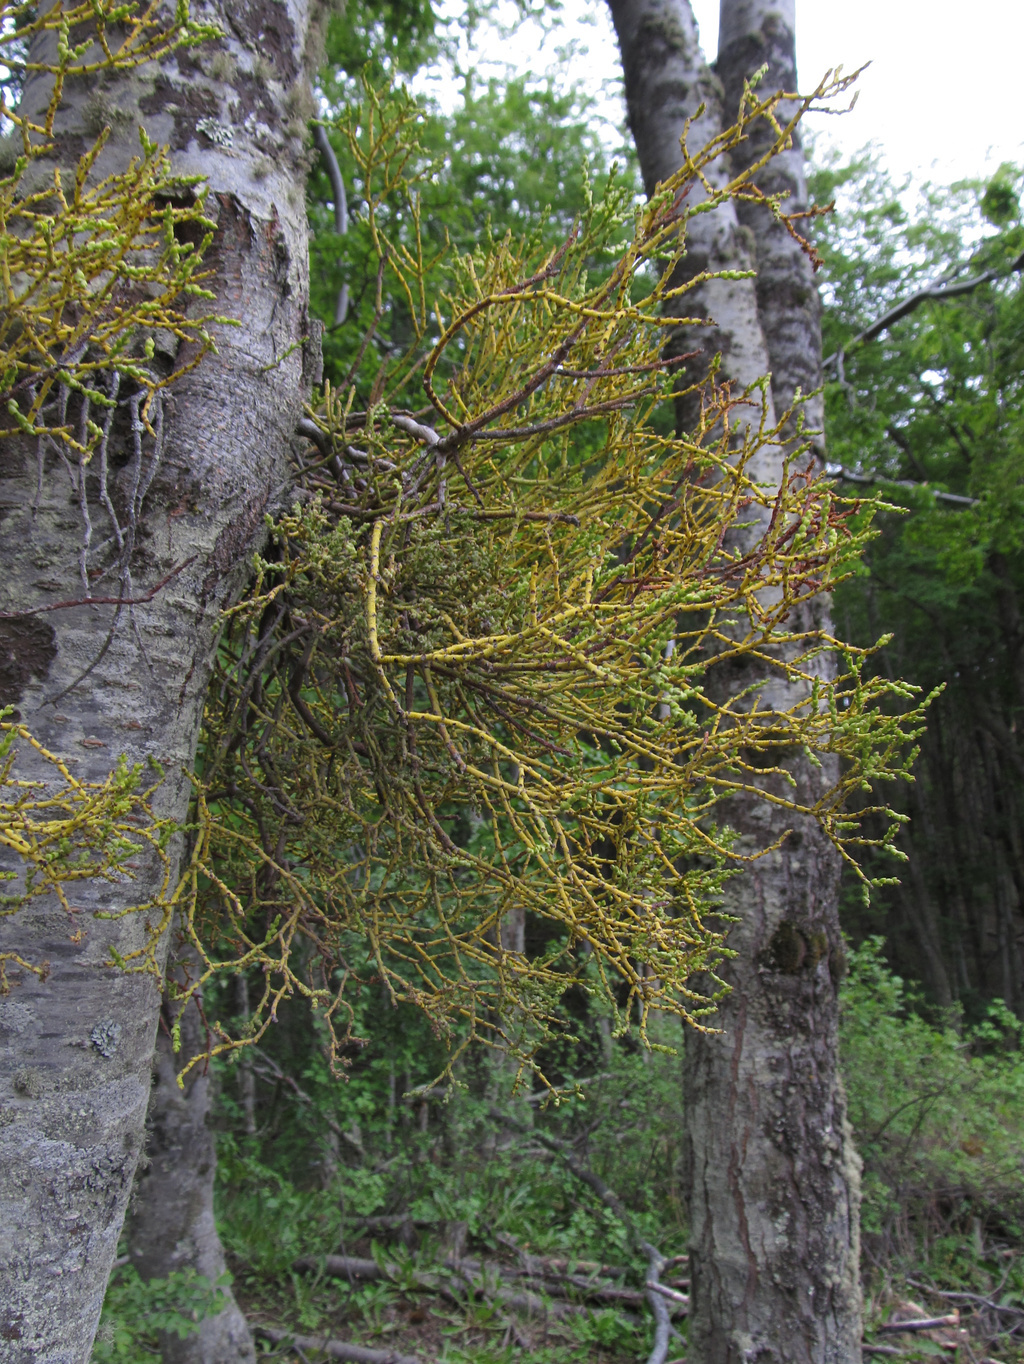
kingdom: Plantae
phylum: Tracheophyta
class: Magnoliopsida
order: Santalales
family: Misodendraceae
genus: Misodendrum
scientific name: Misodendrum punctulatum
